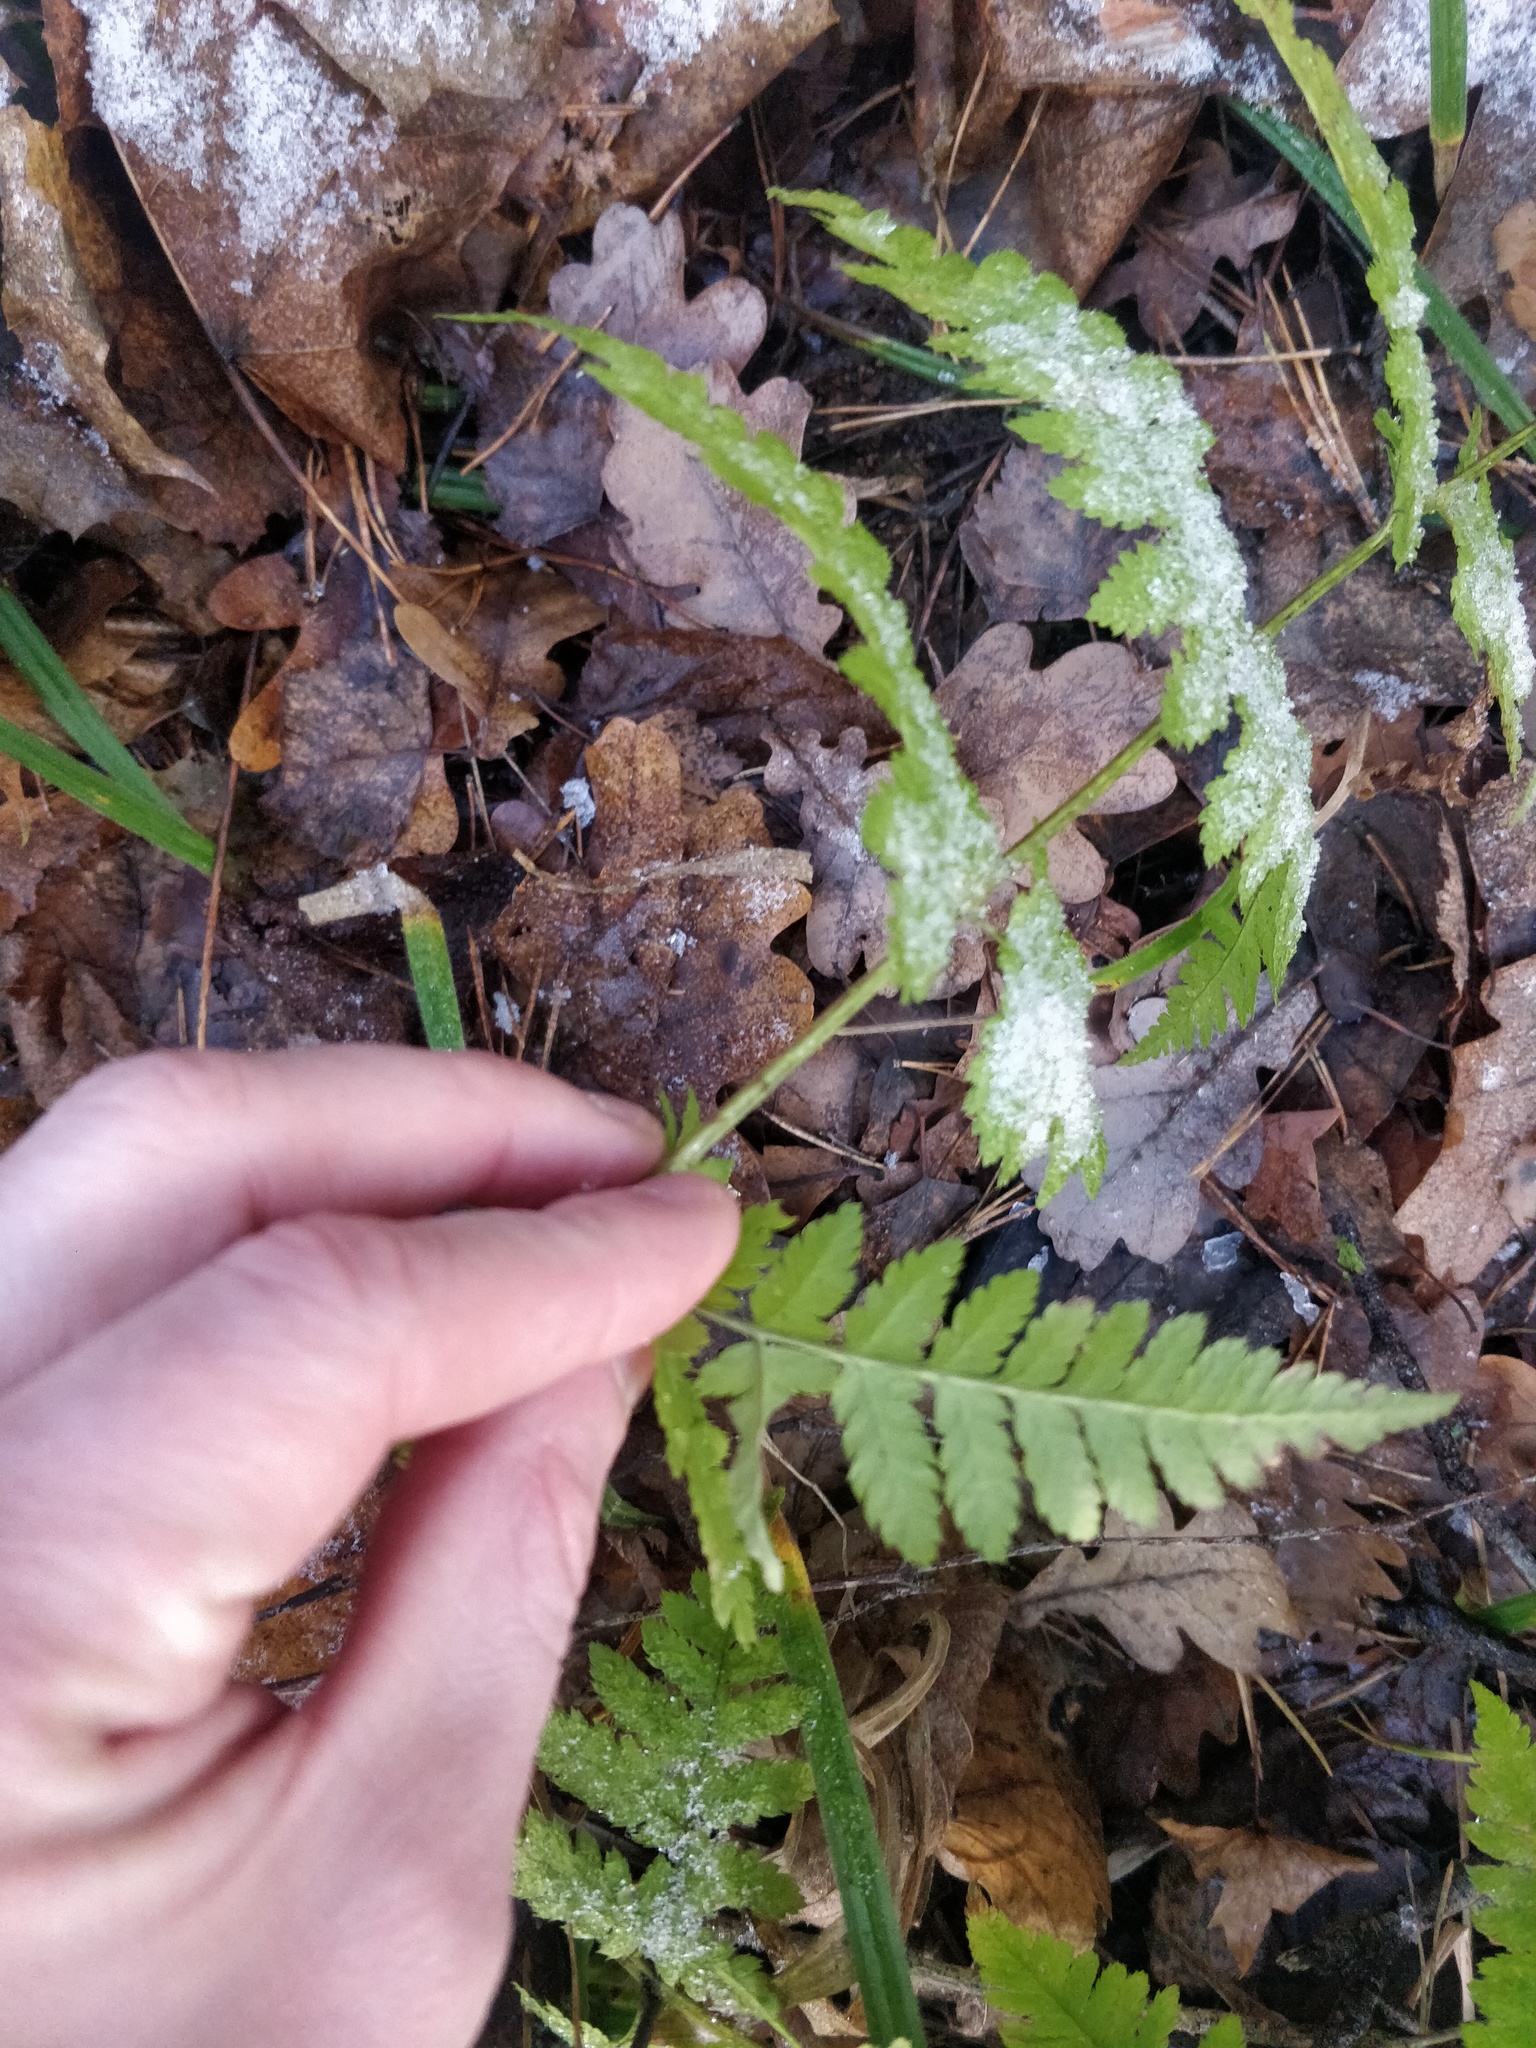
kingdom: Plantae
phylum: Tracheophyta
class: Polypodiopsida
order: Polypodiales
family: Dryopteridaceae
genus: Dryopteris
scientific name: Dryopteris carthusiana
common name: Narrow buckler-fern
